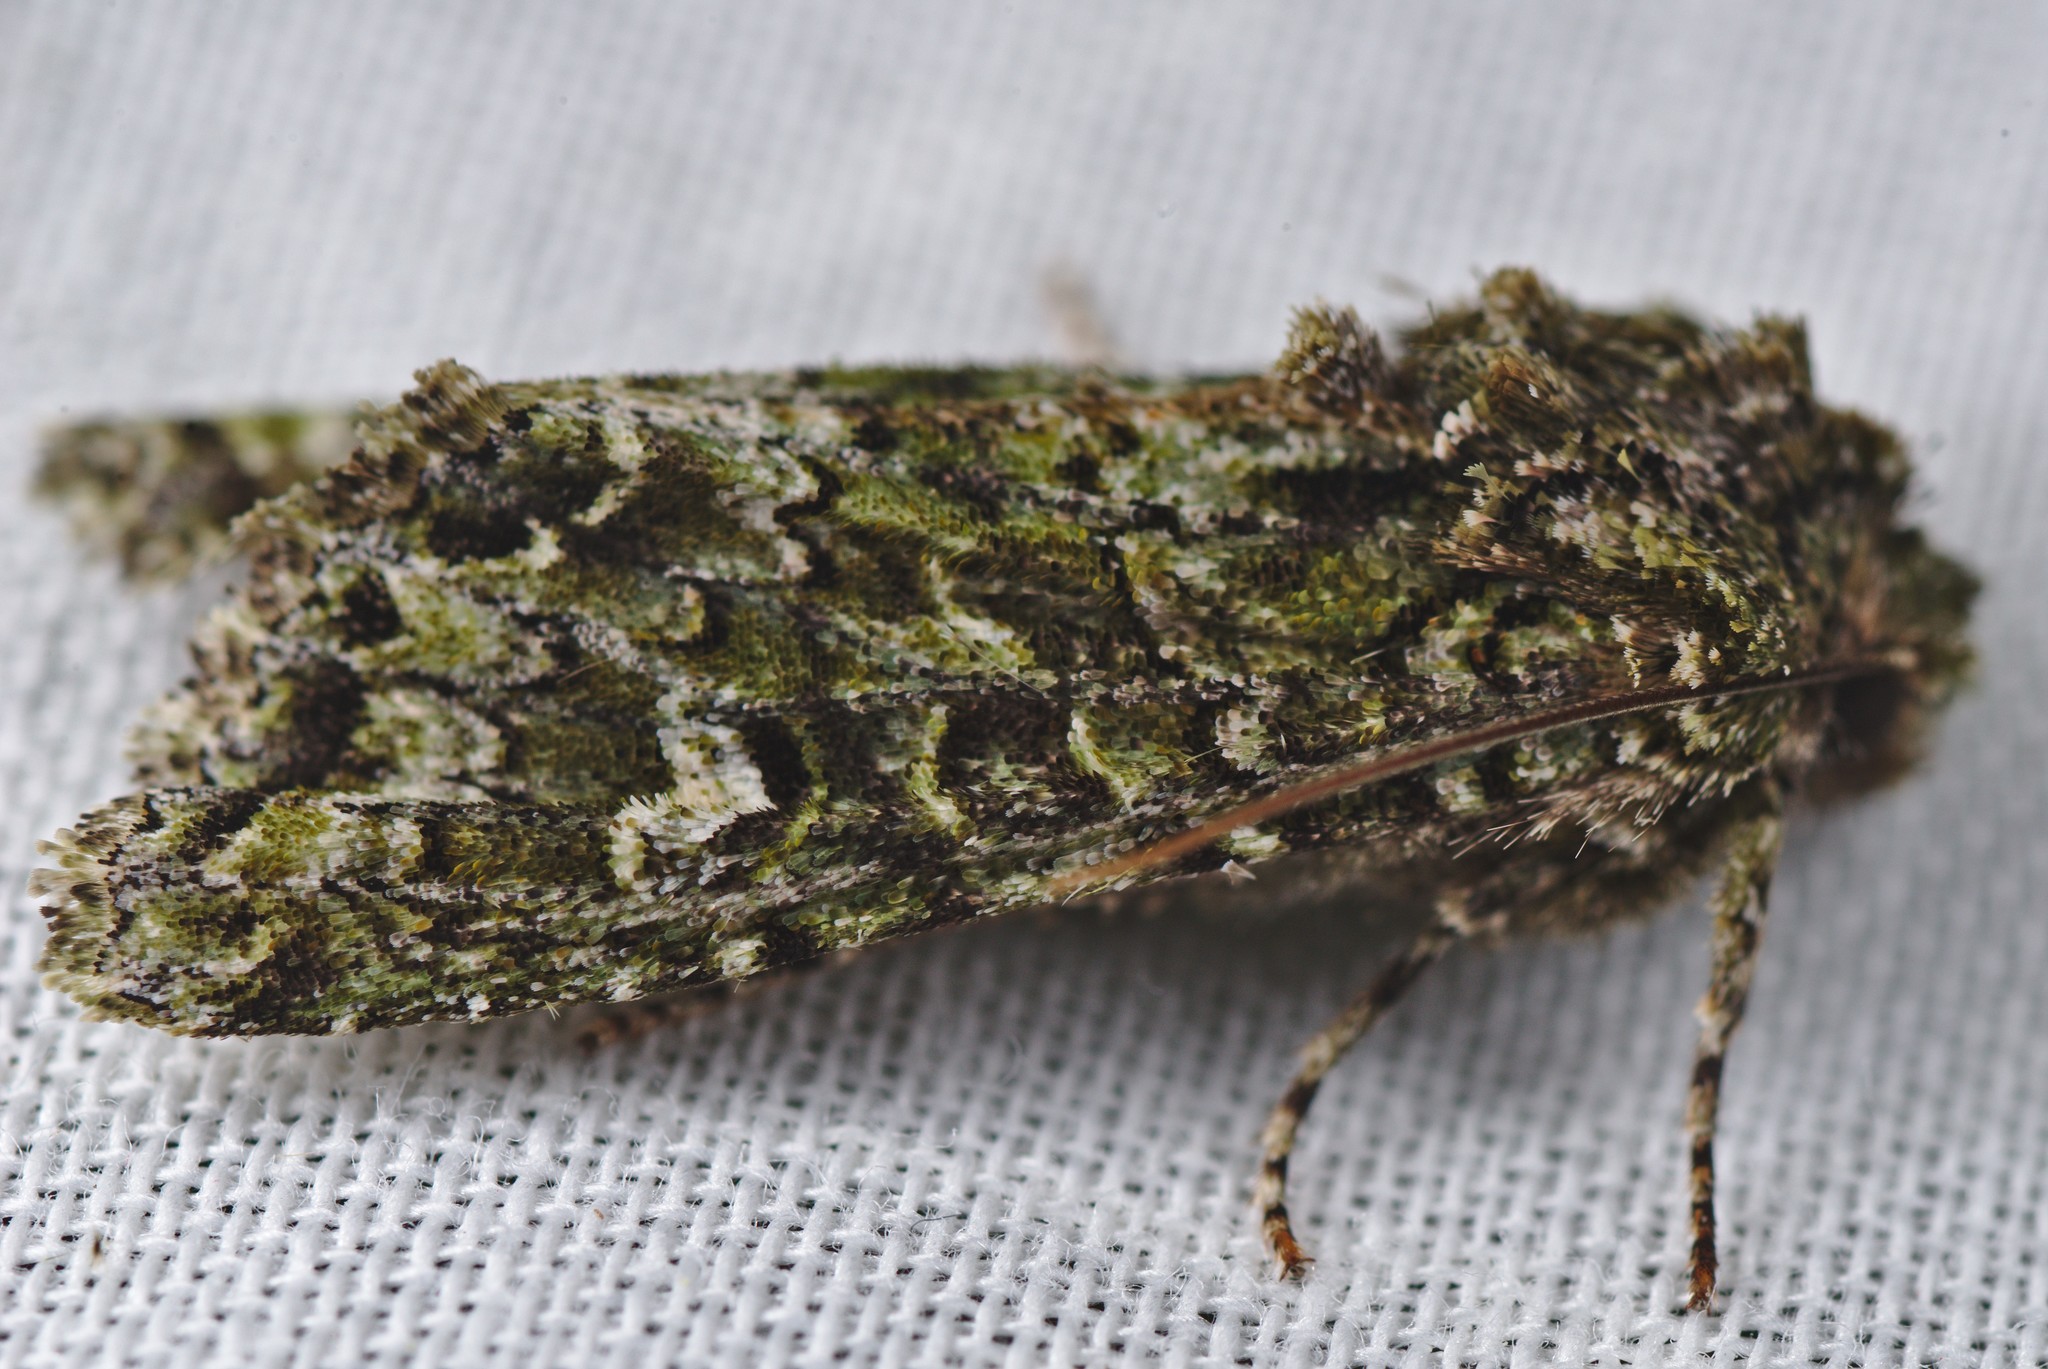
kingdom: Animalia
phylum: Arthropoda
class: Insecta
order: Lepidoptera
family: Noctuidae
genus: Ichneutica
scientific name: Ichneutica
